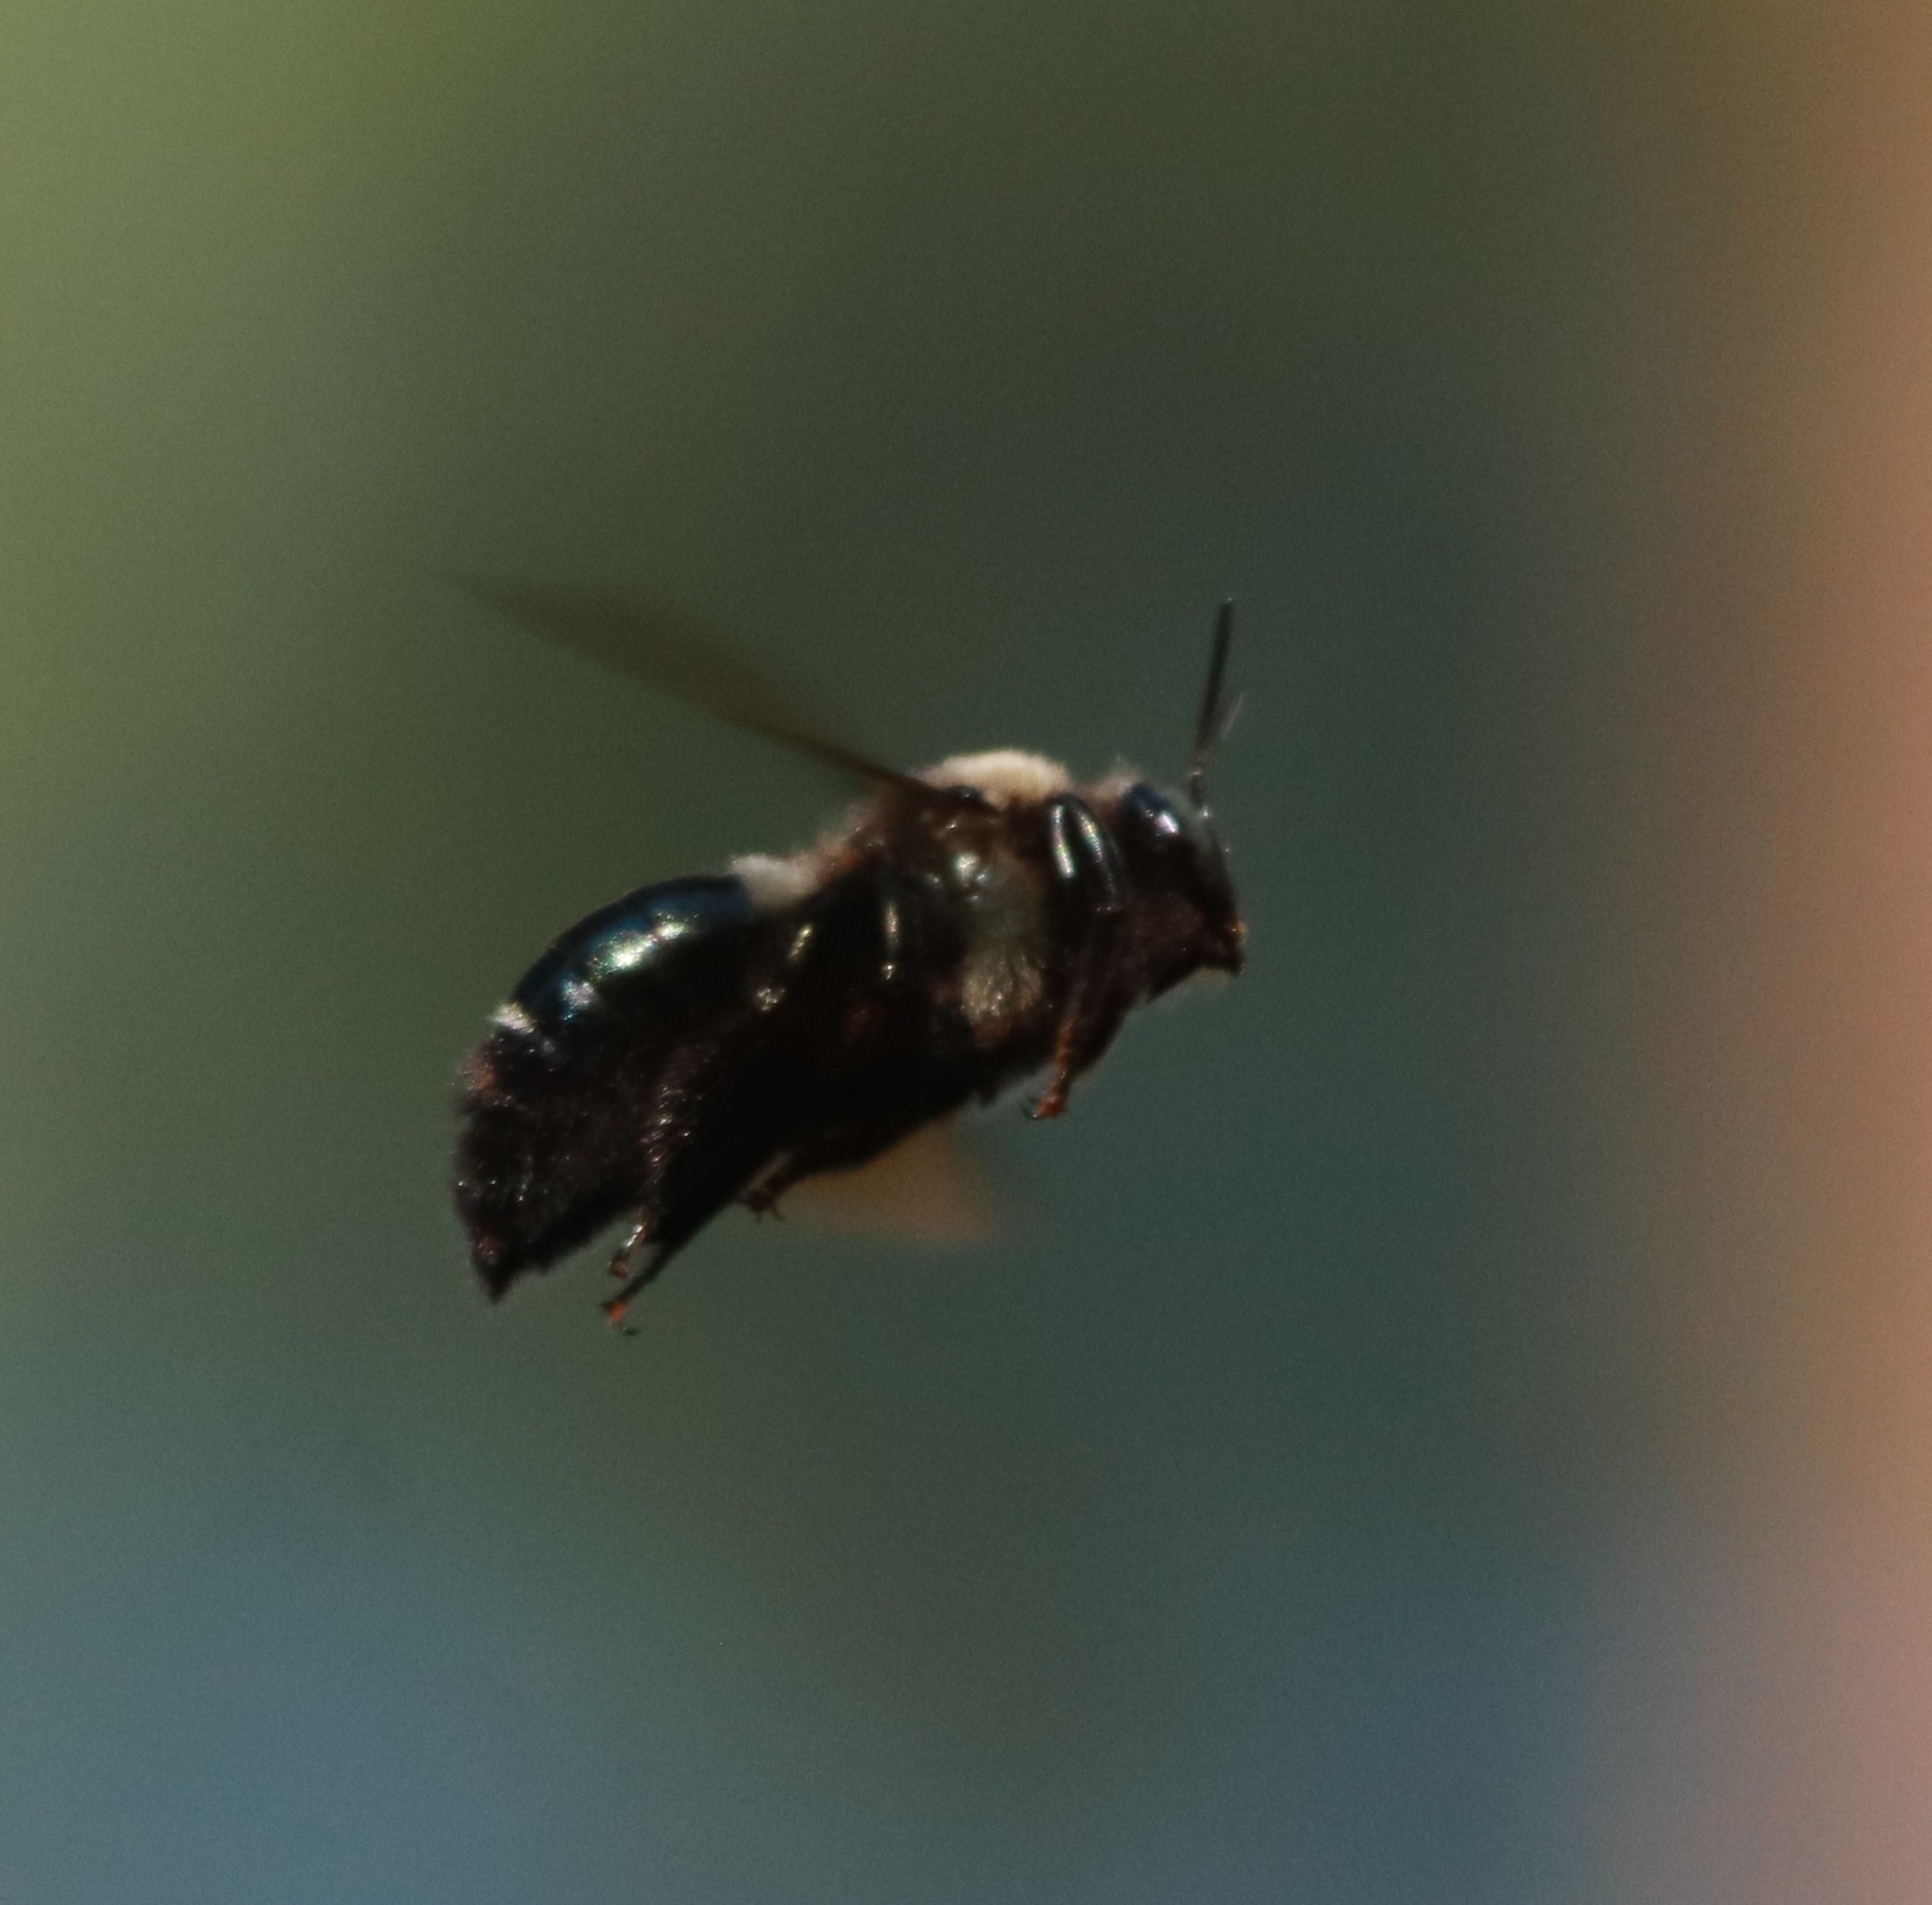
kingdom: Animalia
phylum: Arthropoda
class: Insecta
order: Hymenoptera
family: Apidae
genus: Xylocopa
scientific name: Xylocopa californica
